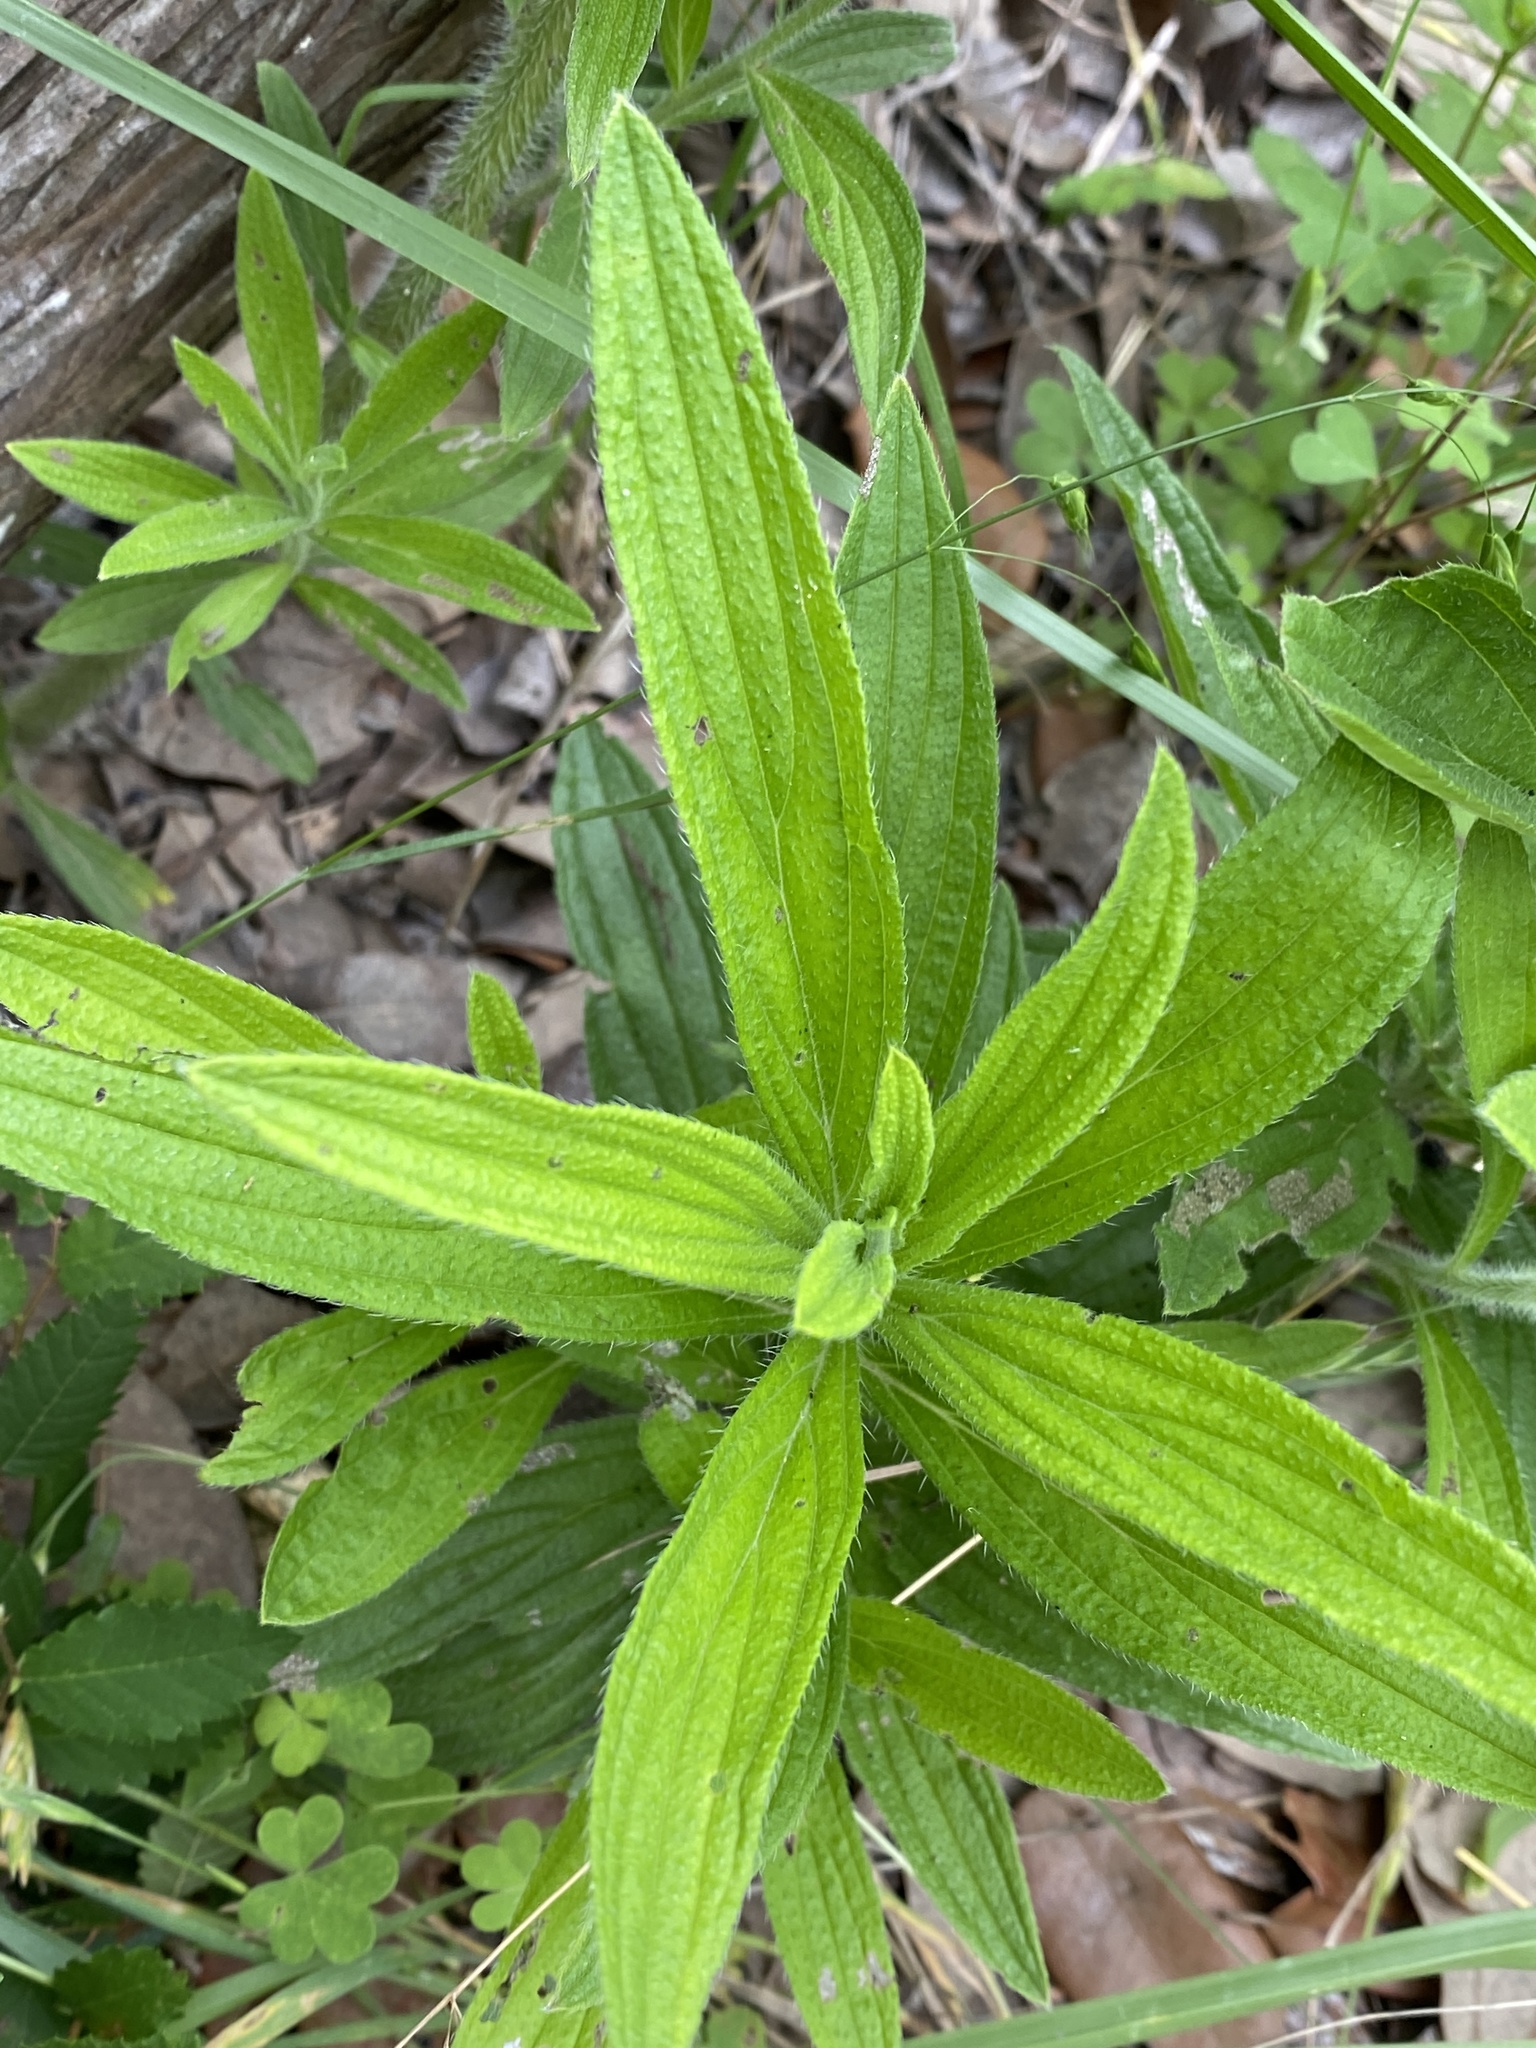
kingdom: Plantae
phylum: Tracheophyta
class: Magnoliopsida
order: Boraginales
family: Boraginaceae
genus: Lithospermum
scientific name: Lithospermum caroliniense
